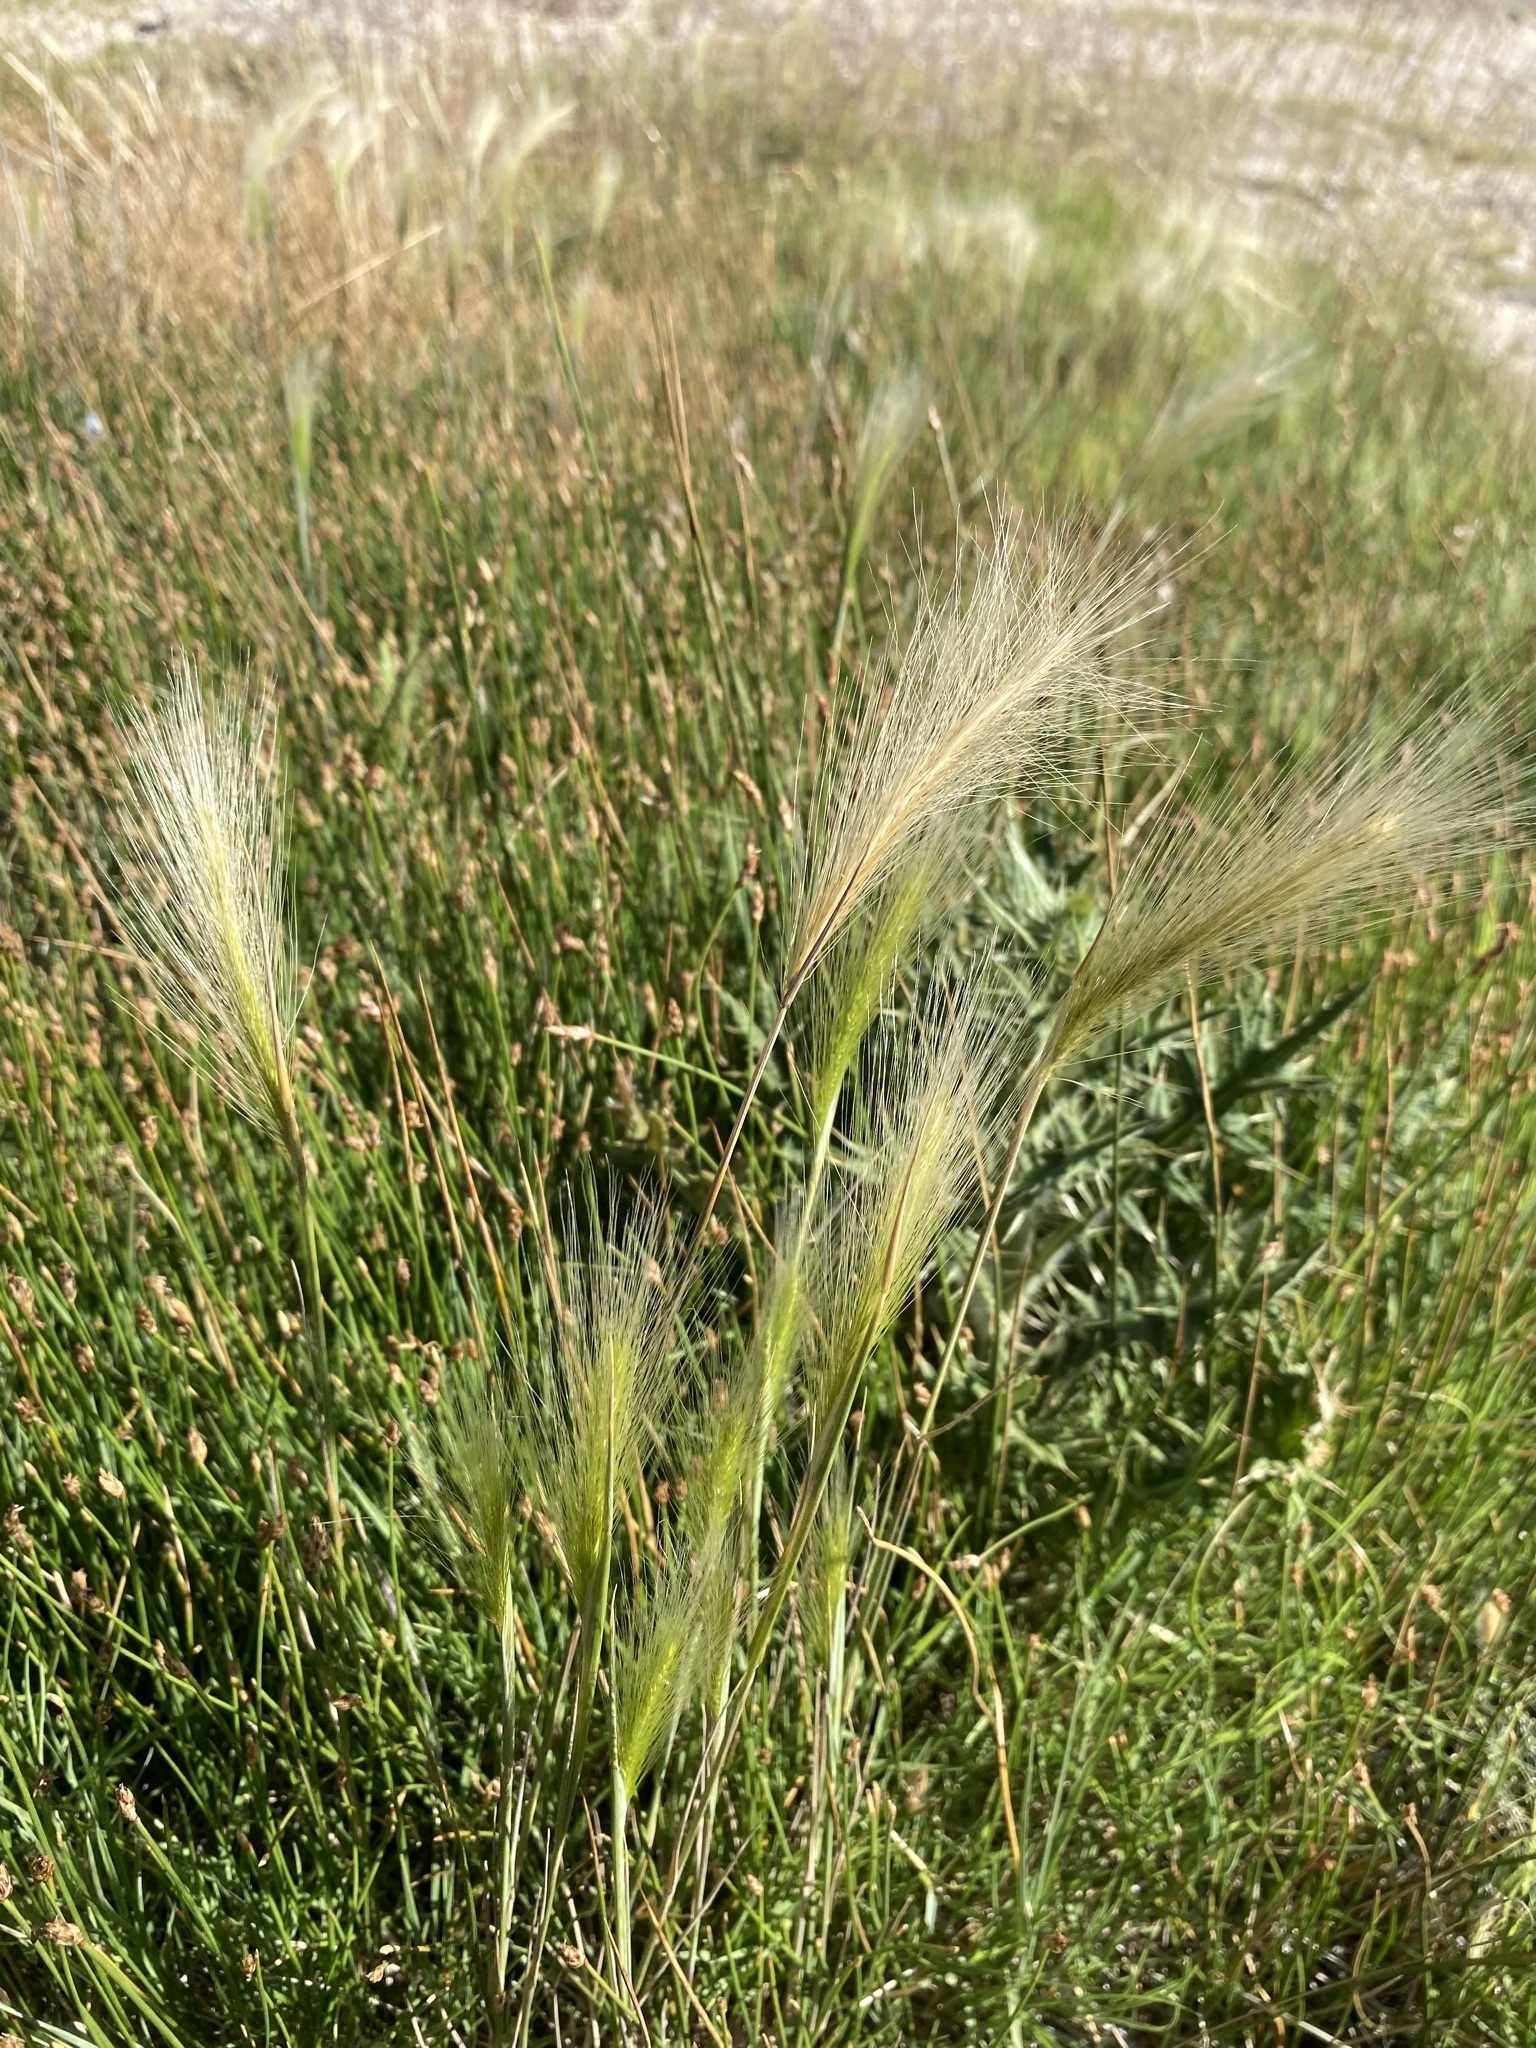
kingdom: Plantae
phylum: Tracheophyta
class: Liliopsida
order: Poales
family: Poaceae
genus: Hordeum
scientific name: Hordeum jubatum
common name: Foxtail barley
